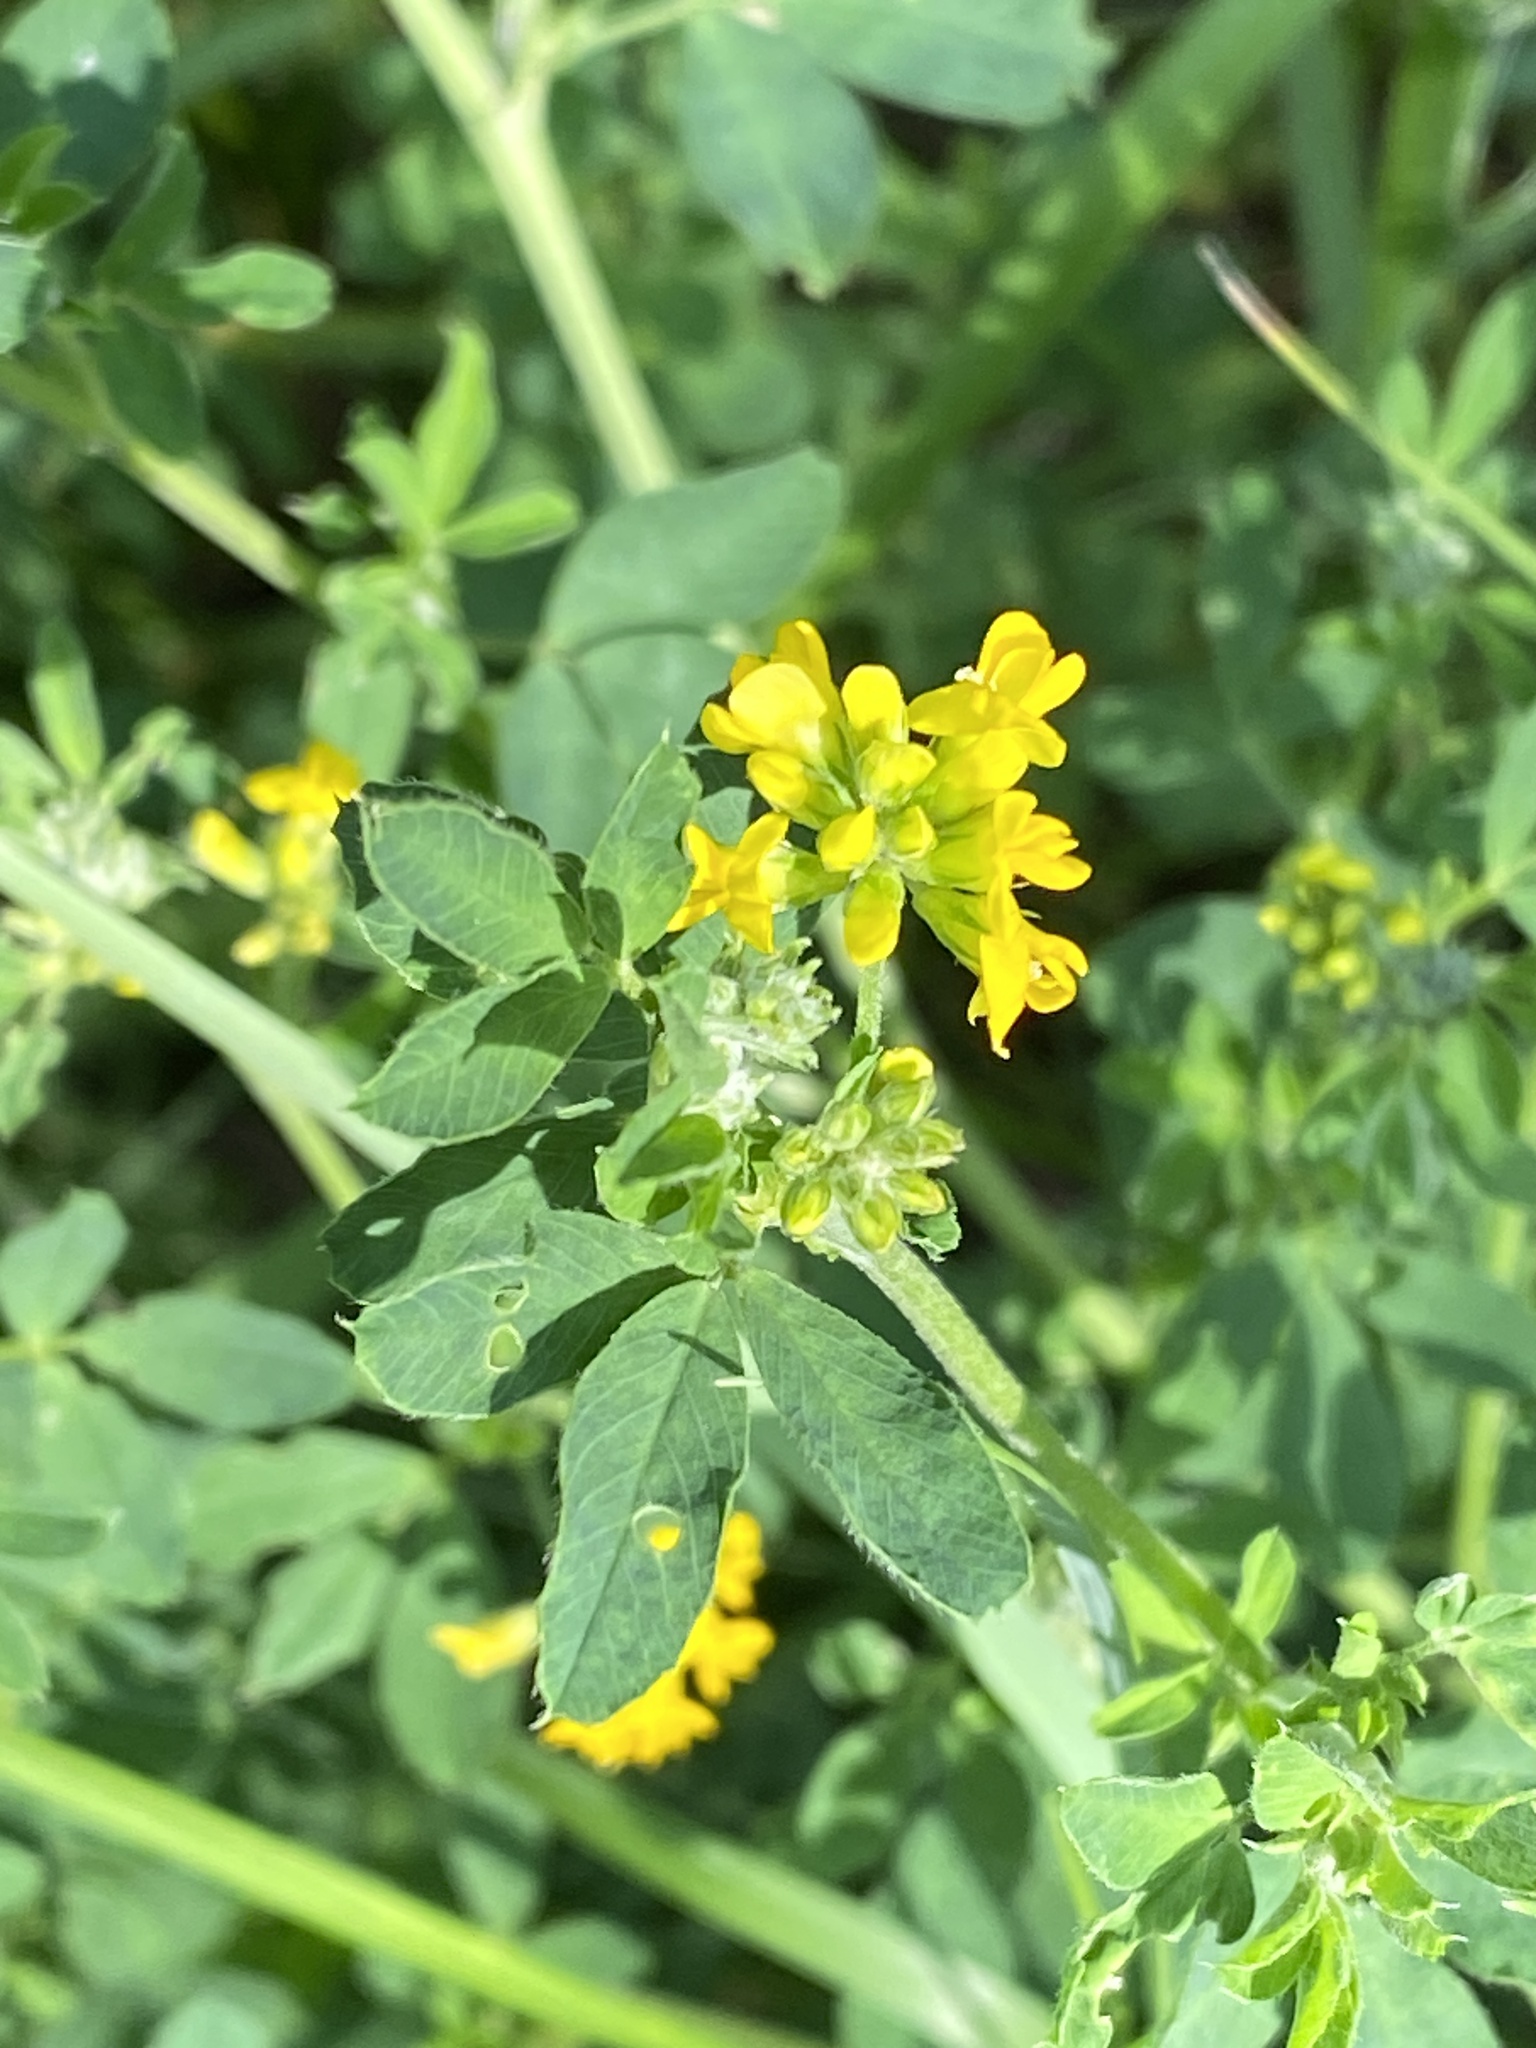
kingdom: Plantae
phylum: Tracheophyta
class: Magnoliopsida
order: Fabales
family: Fabaceae
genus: Medicago
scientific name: Medicago falcata
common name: Sickle medick
